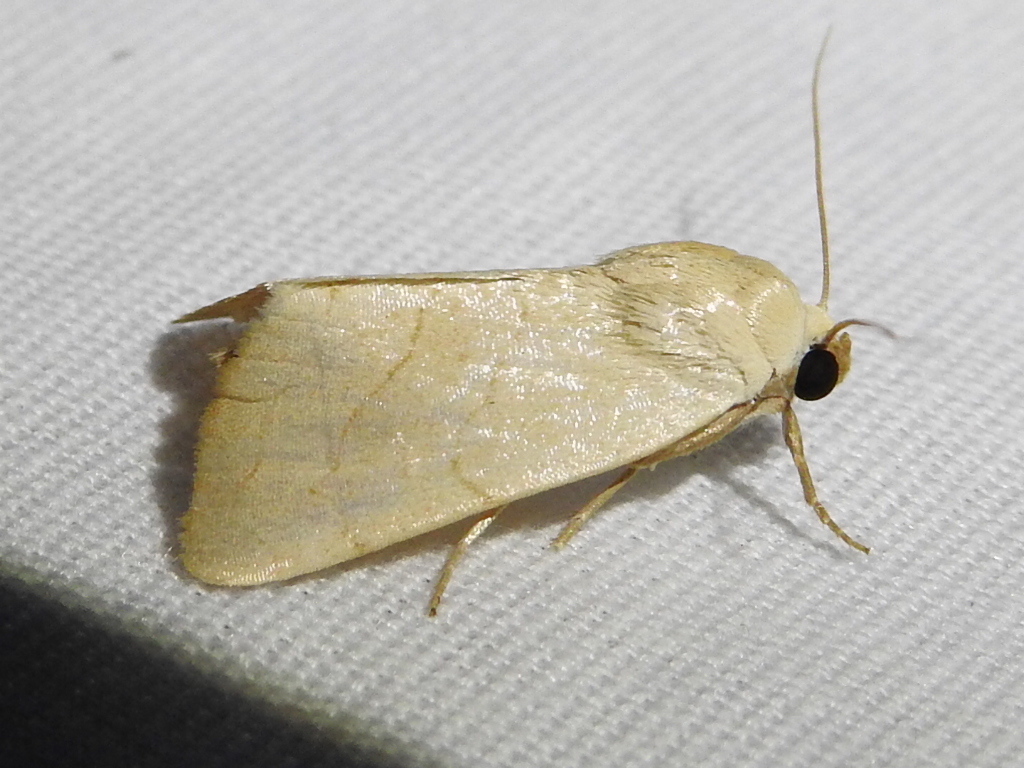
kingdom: Animalia
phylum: Arthropoda
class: Insecta
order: Lepidoptera
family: Noctuidae
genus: Bagisara
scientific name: Bagisara buxea
